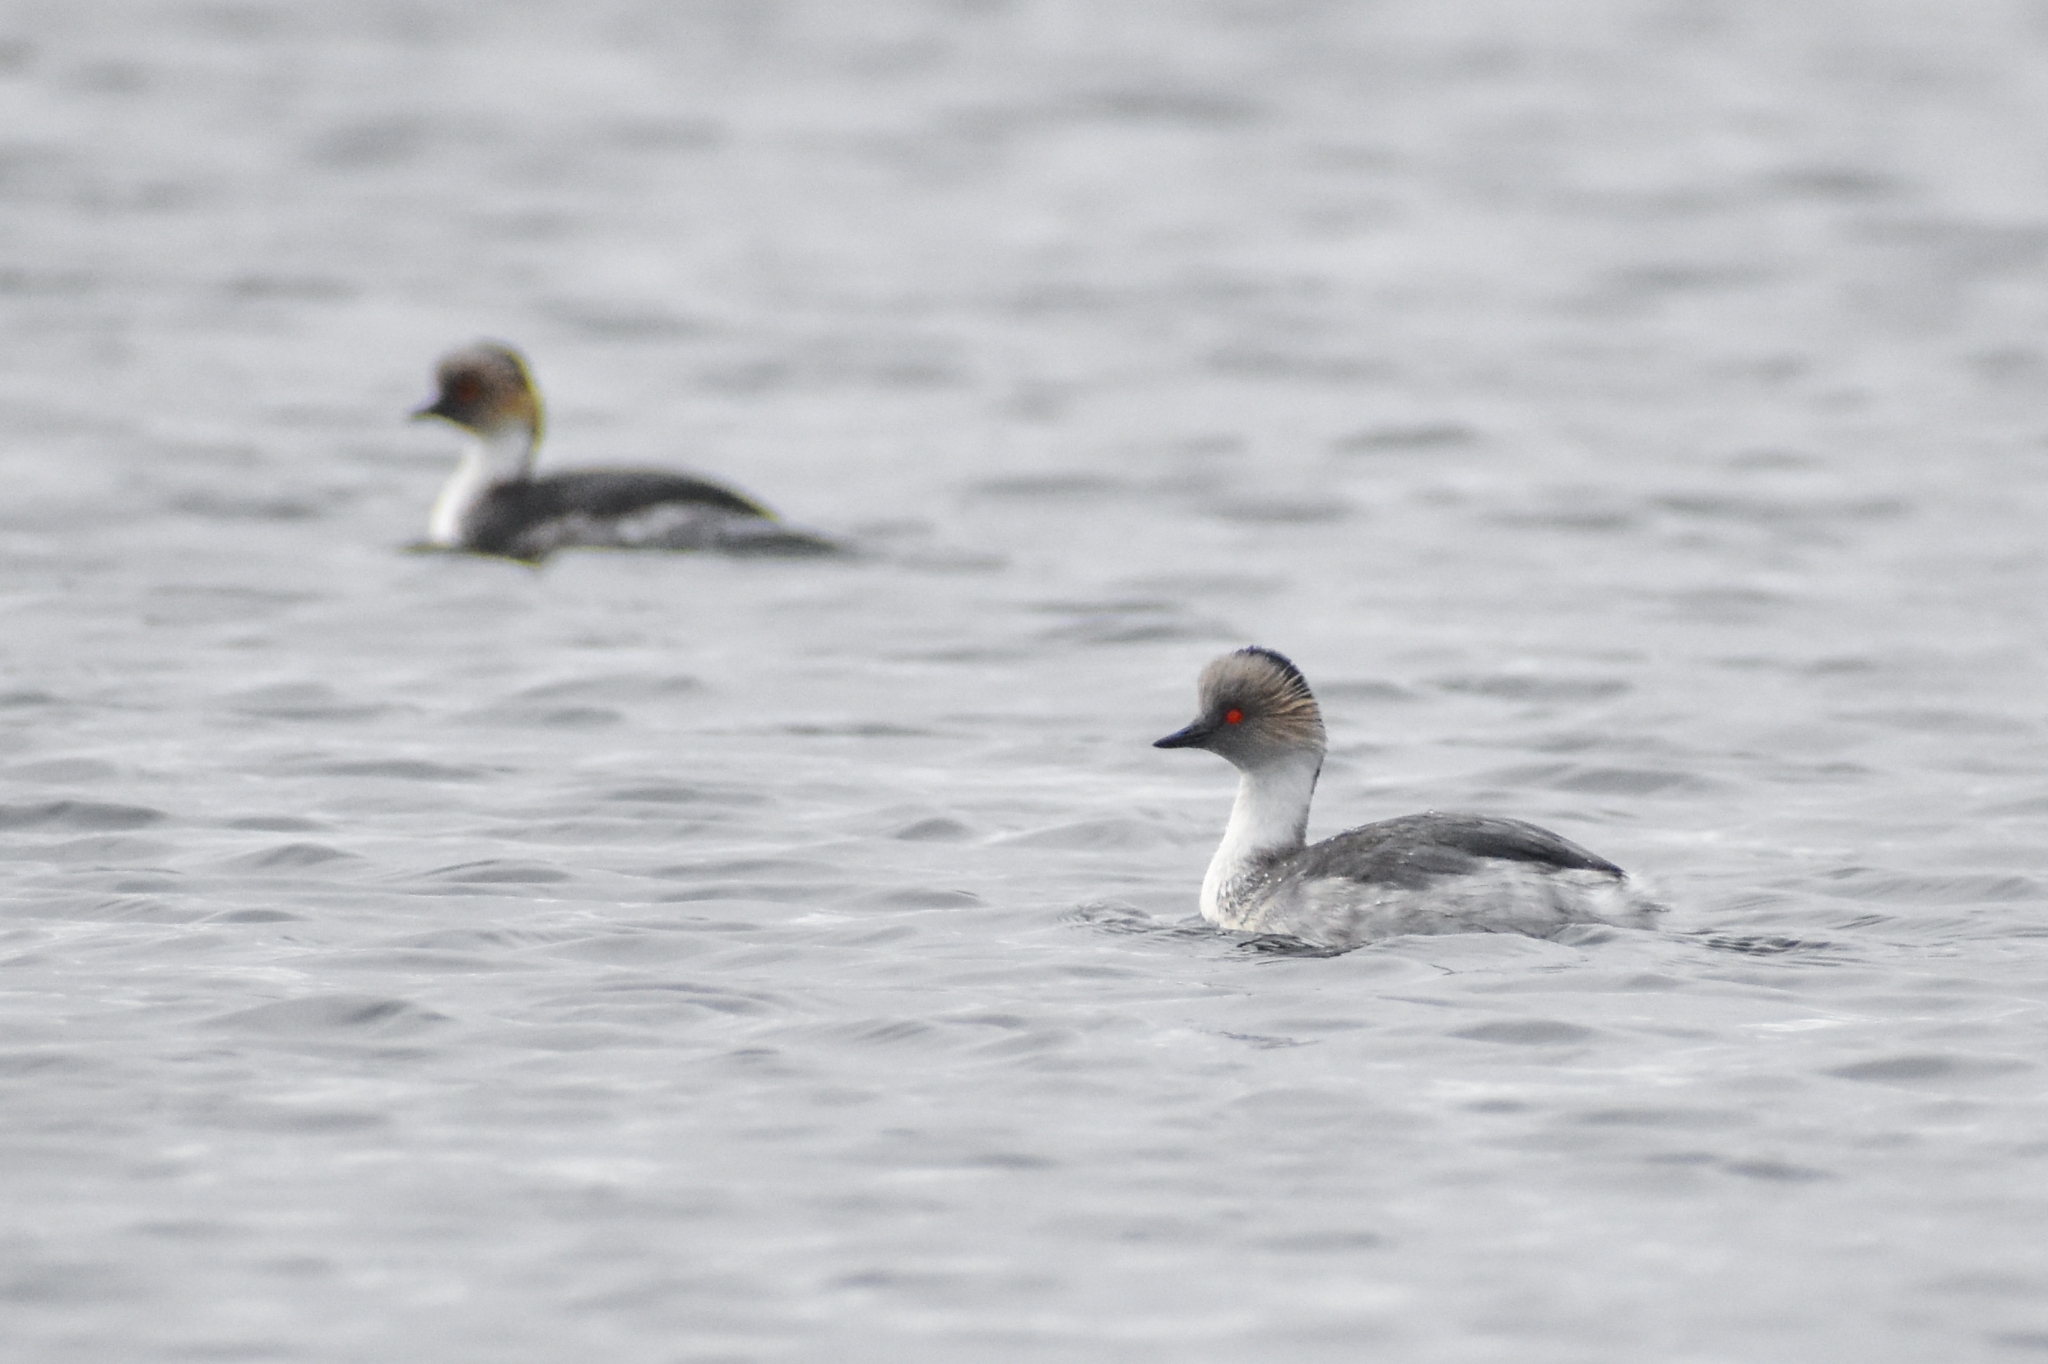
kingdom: Animalia
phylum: Chordata
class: Aves
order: Podicipediformes
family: Podicipedidae
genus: Podiceps
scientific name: Podiceps occipitalis
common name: Silvery grebe
